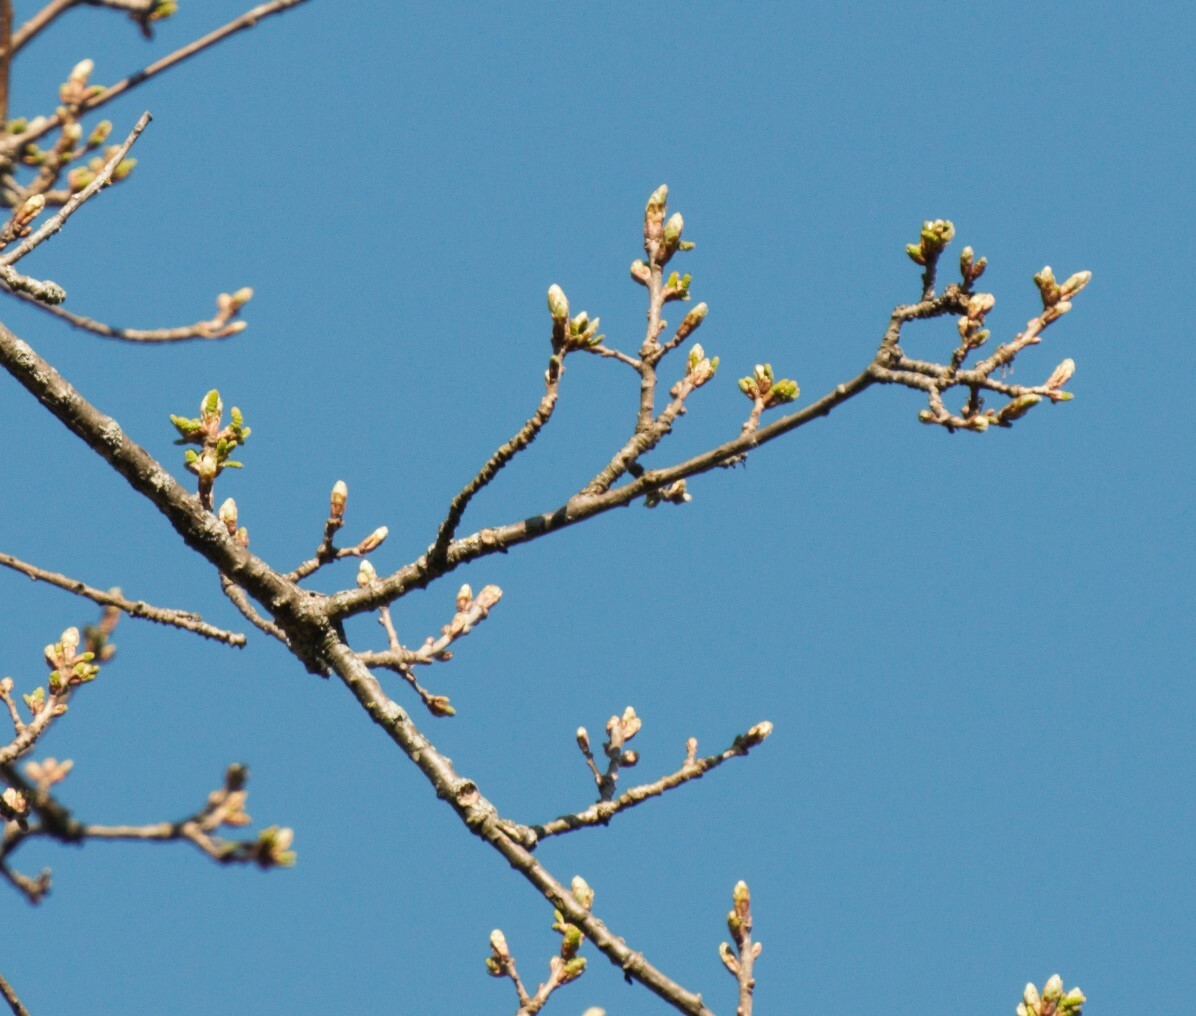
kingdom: Plantae
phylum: Tracheophyta
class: Magnoliopsida
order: Fagales
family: Fagaceae
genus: Quercus
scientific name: Quercus robur
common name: Pedunculate oak
